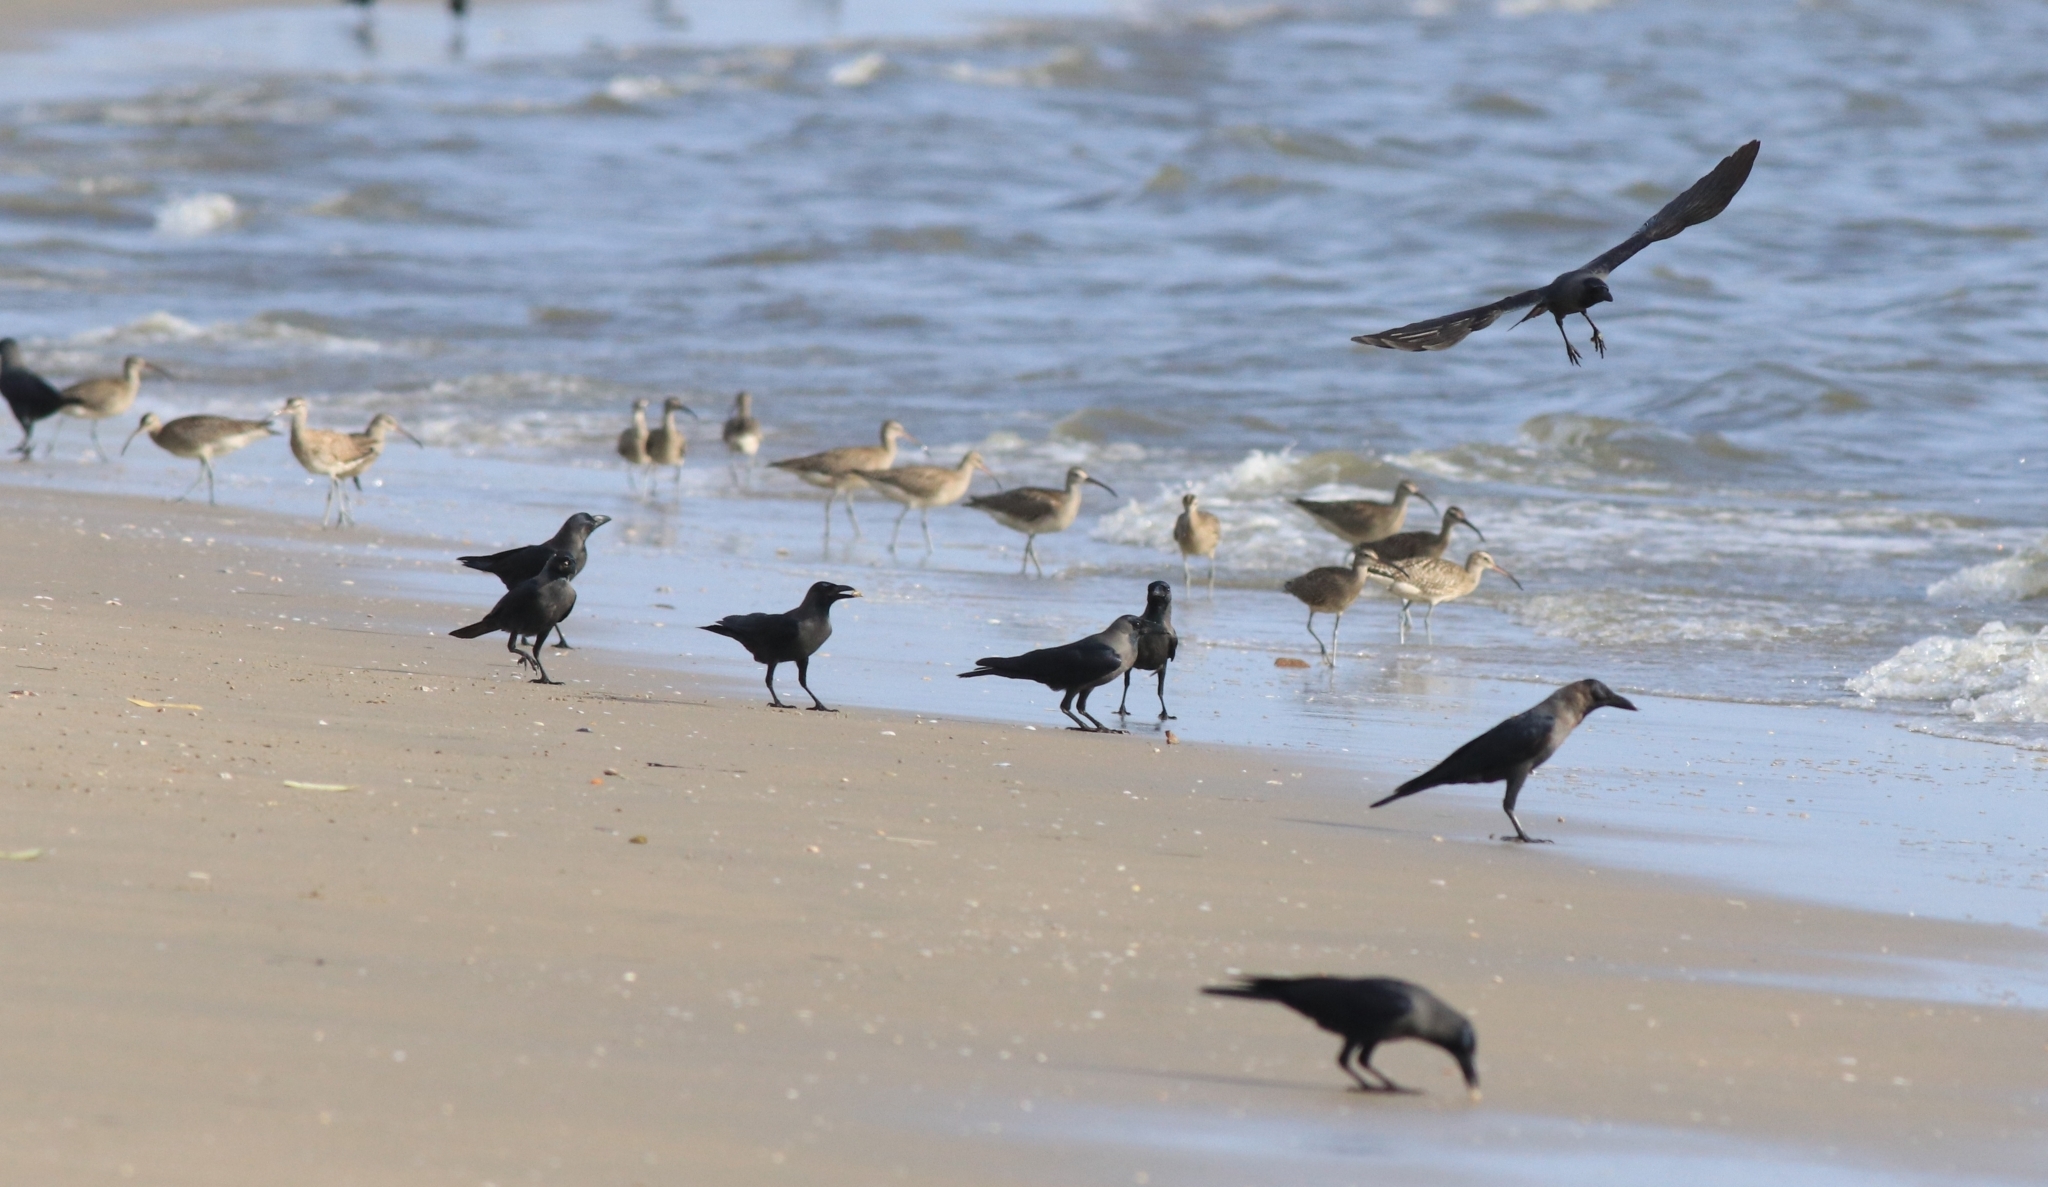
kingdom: Animalia
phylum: Chordata
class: Aves
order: Passeriformes
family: Corvidae
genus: Corvus
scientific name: Corvus splendens
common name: House crow
